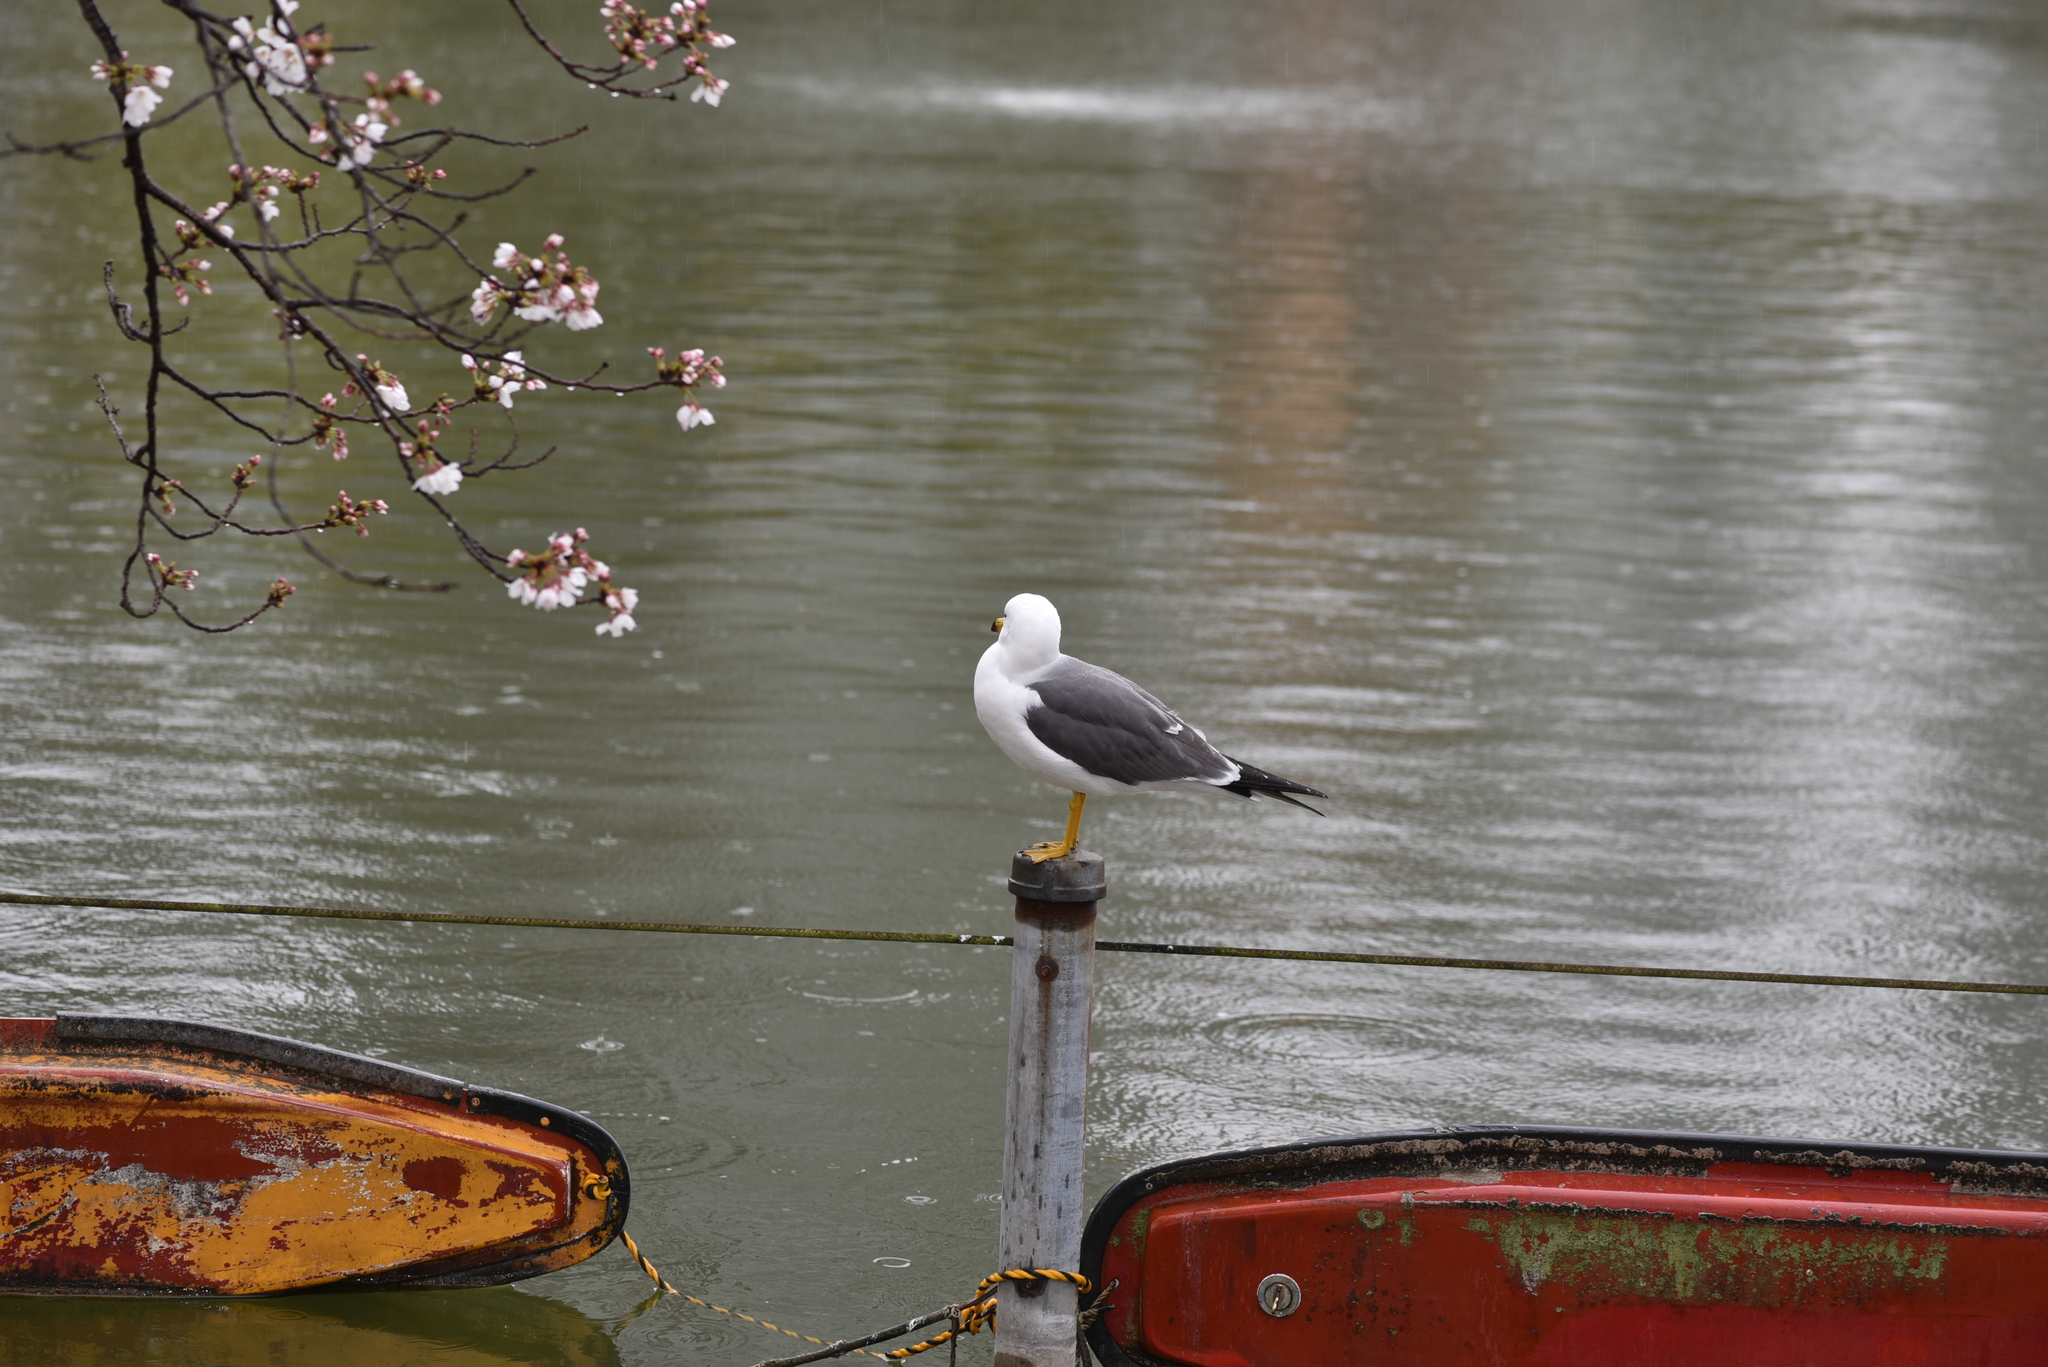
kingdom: Animalia
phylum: Chordata
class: Aves
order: Charadriiformes
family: Laridae
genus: Larus
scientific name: Larus crassirostris
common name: Black-tailed gull
